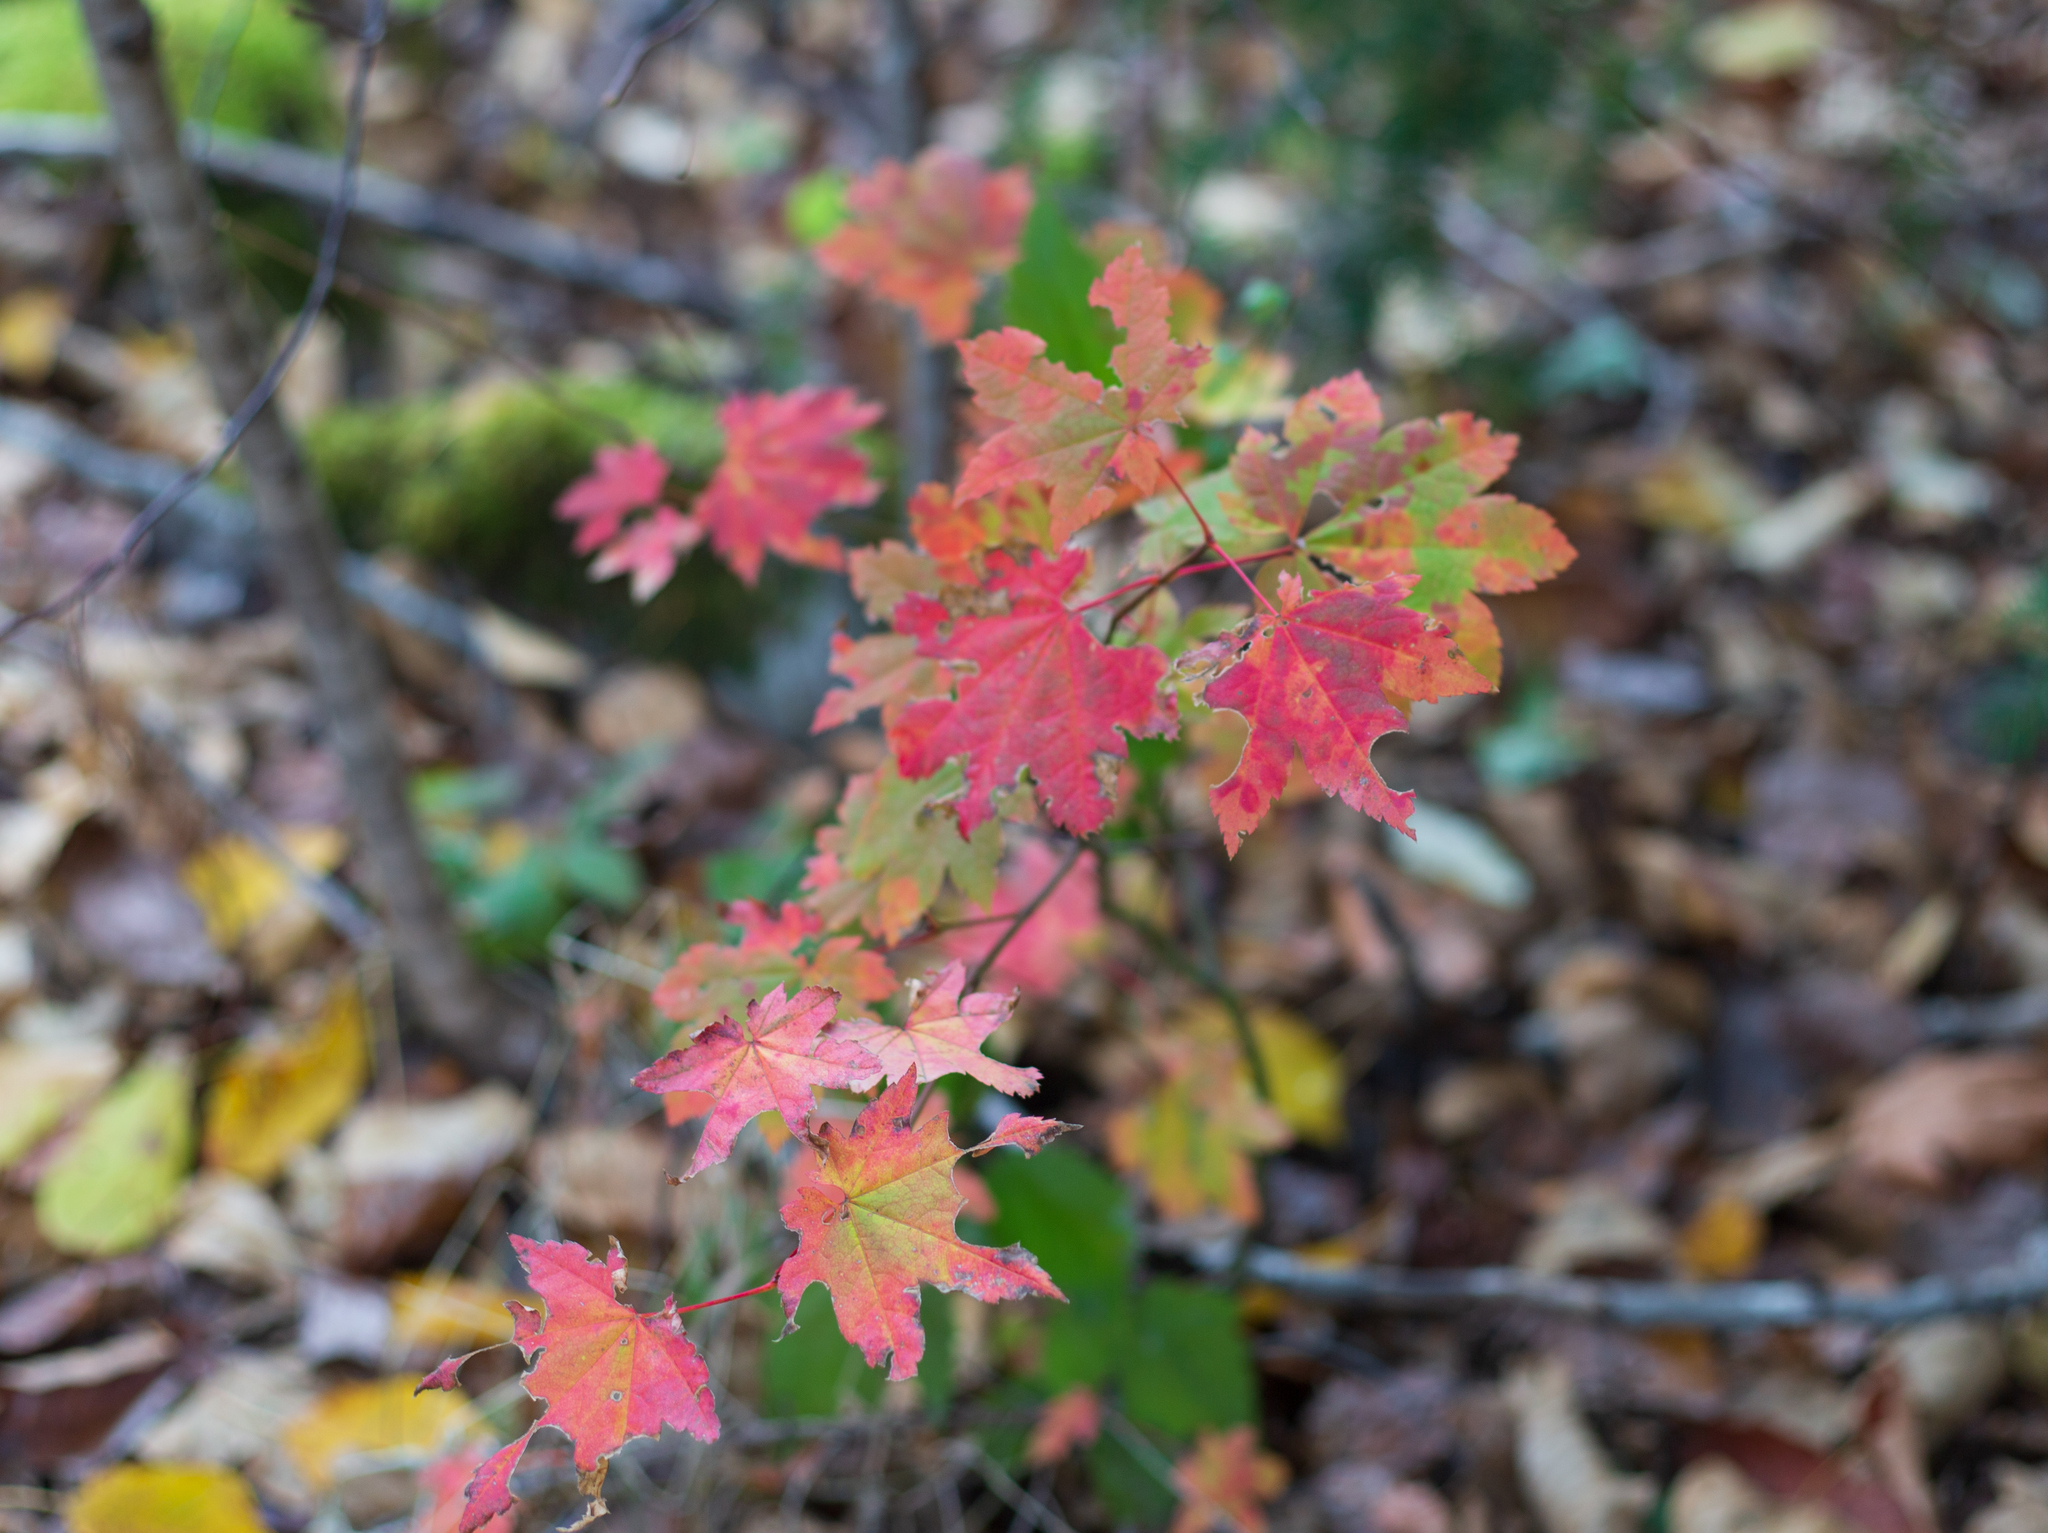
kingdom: Plantae
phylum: Tracheophyta
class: Magnoliopsida
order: Sapindales
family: Sapindaceae
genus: Acer
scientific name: Acer circinatum
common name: Vine maple
